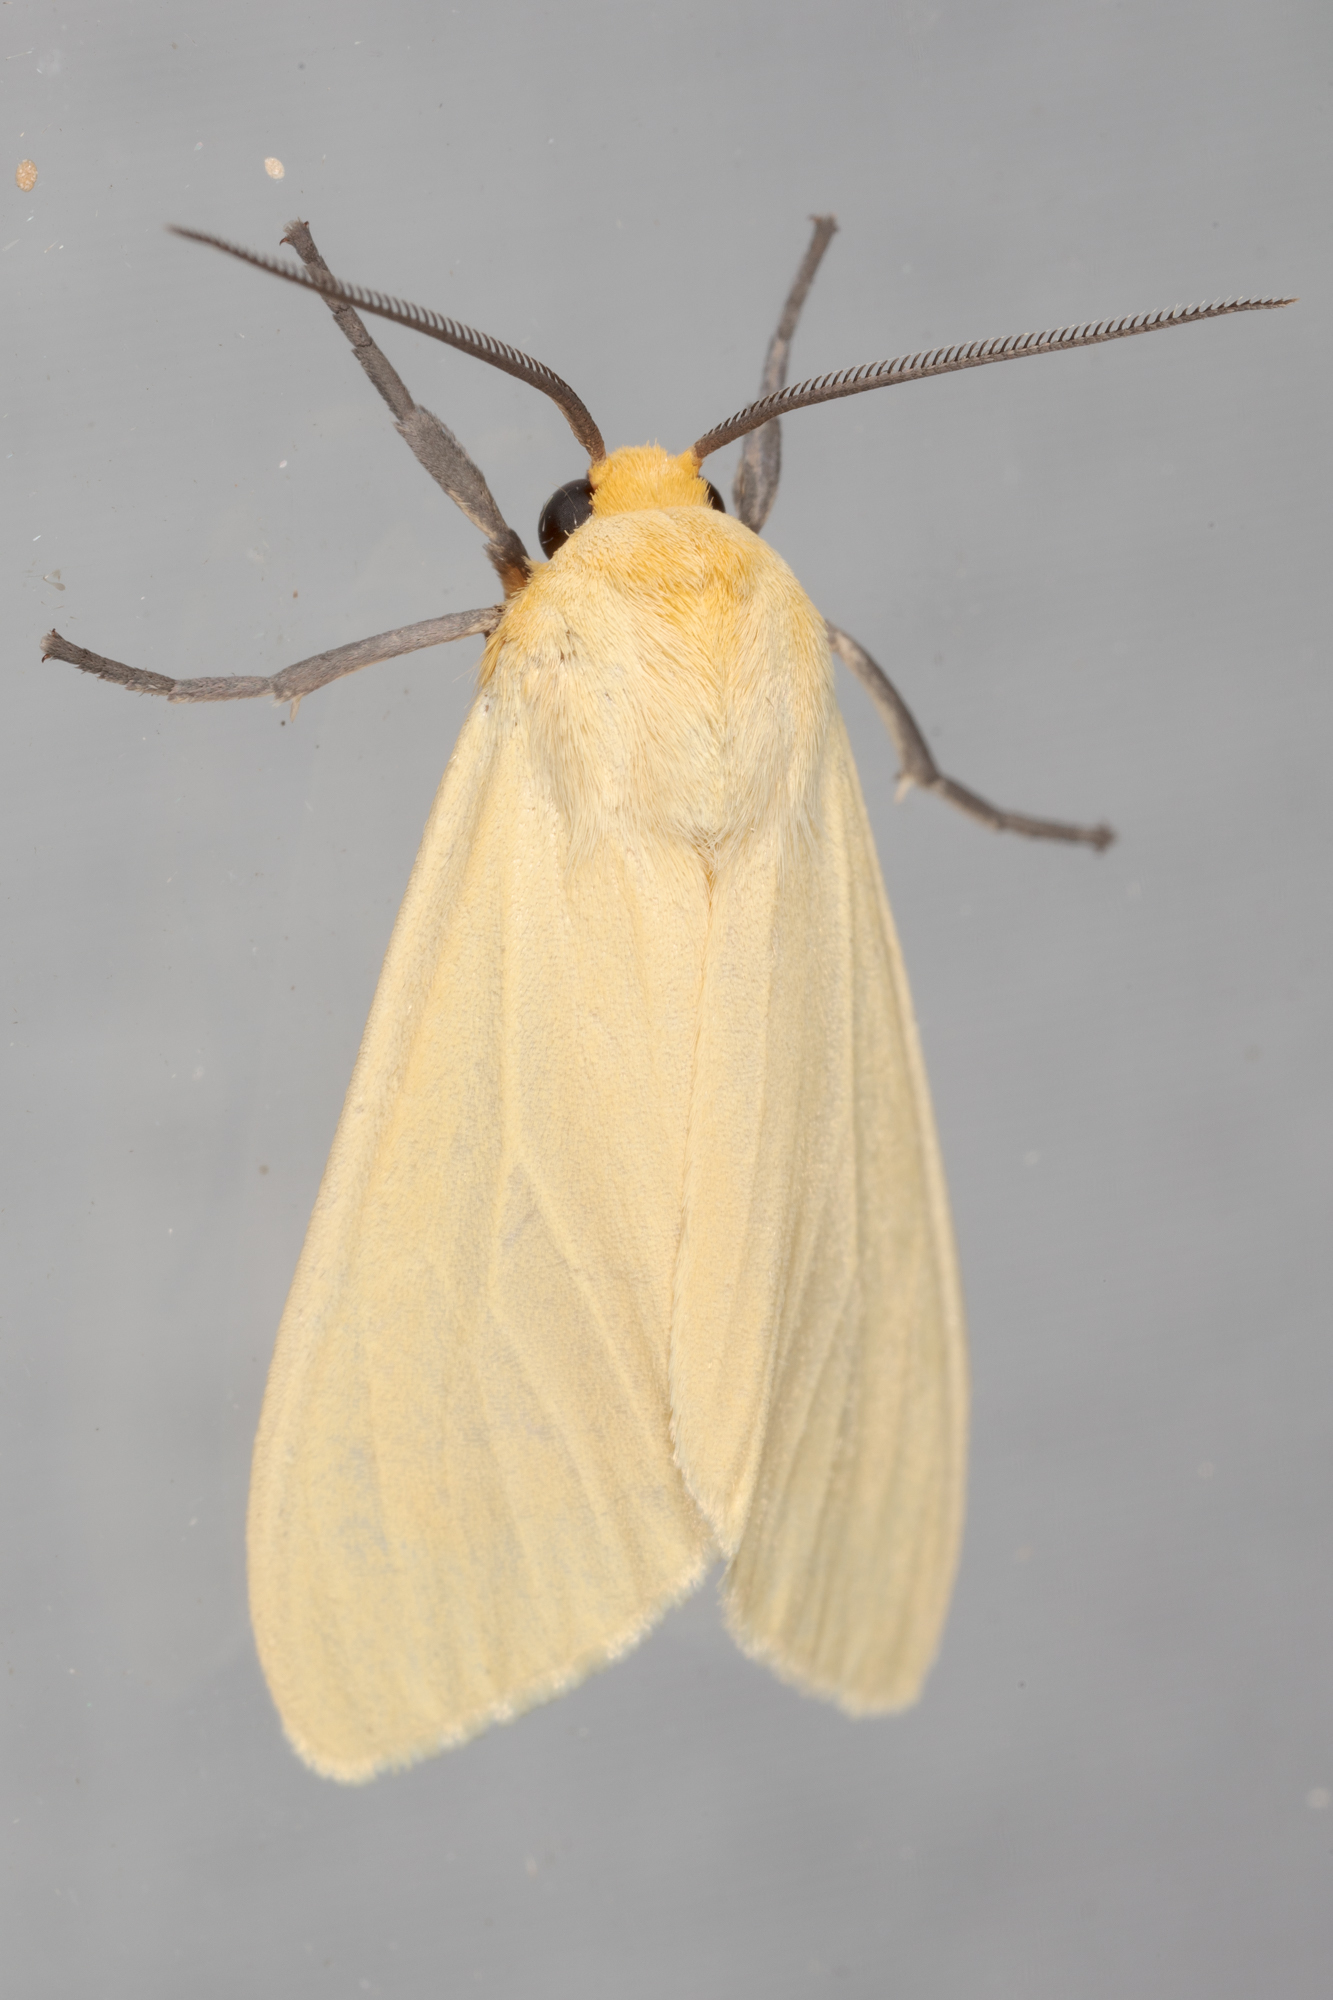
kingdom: Animalia
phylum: Arthropoda
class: Insecta
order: Lepidoptera
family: Erebidae
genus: Pareuchaetes
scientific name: Pareuchaetes insulata
